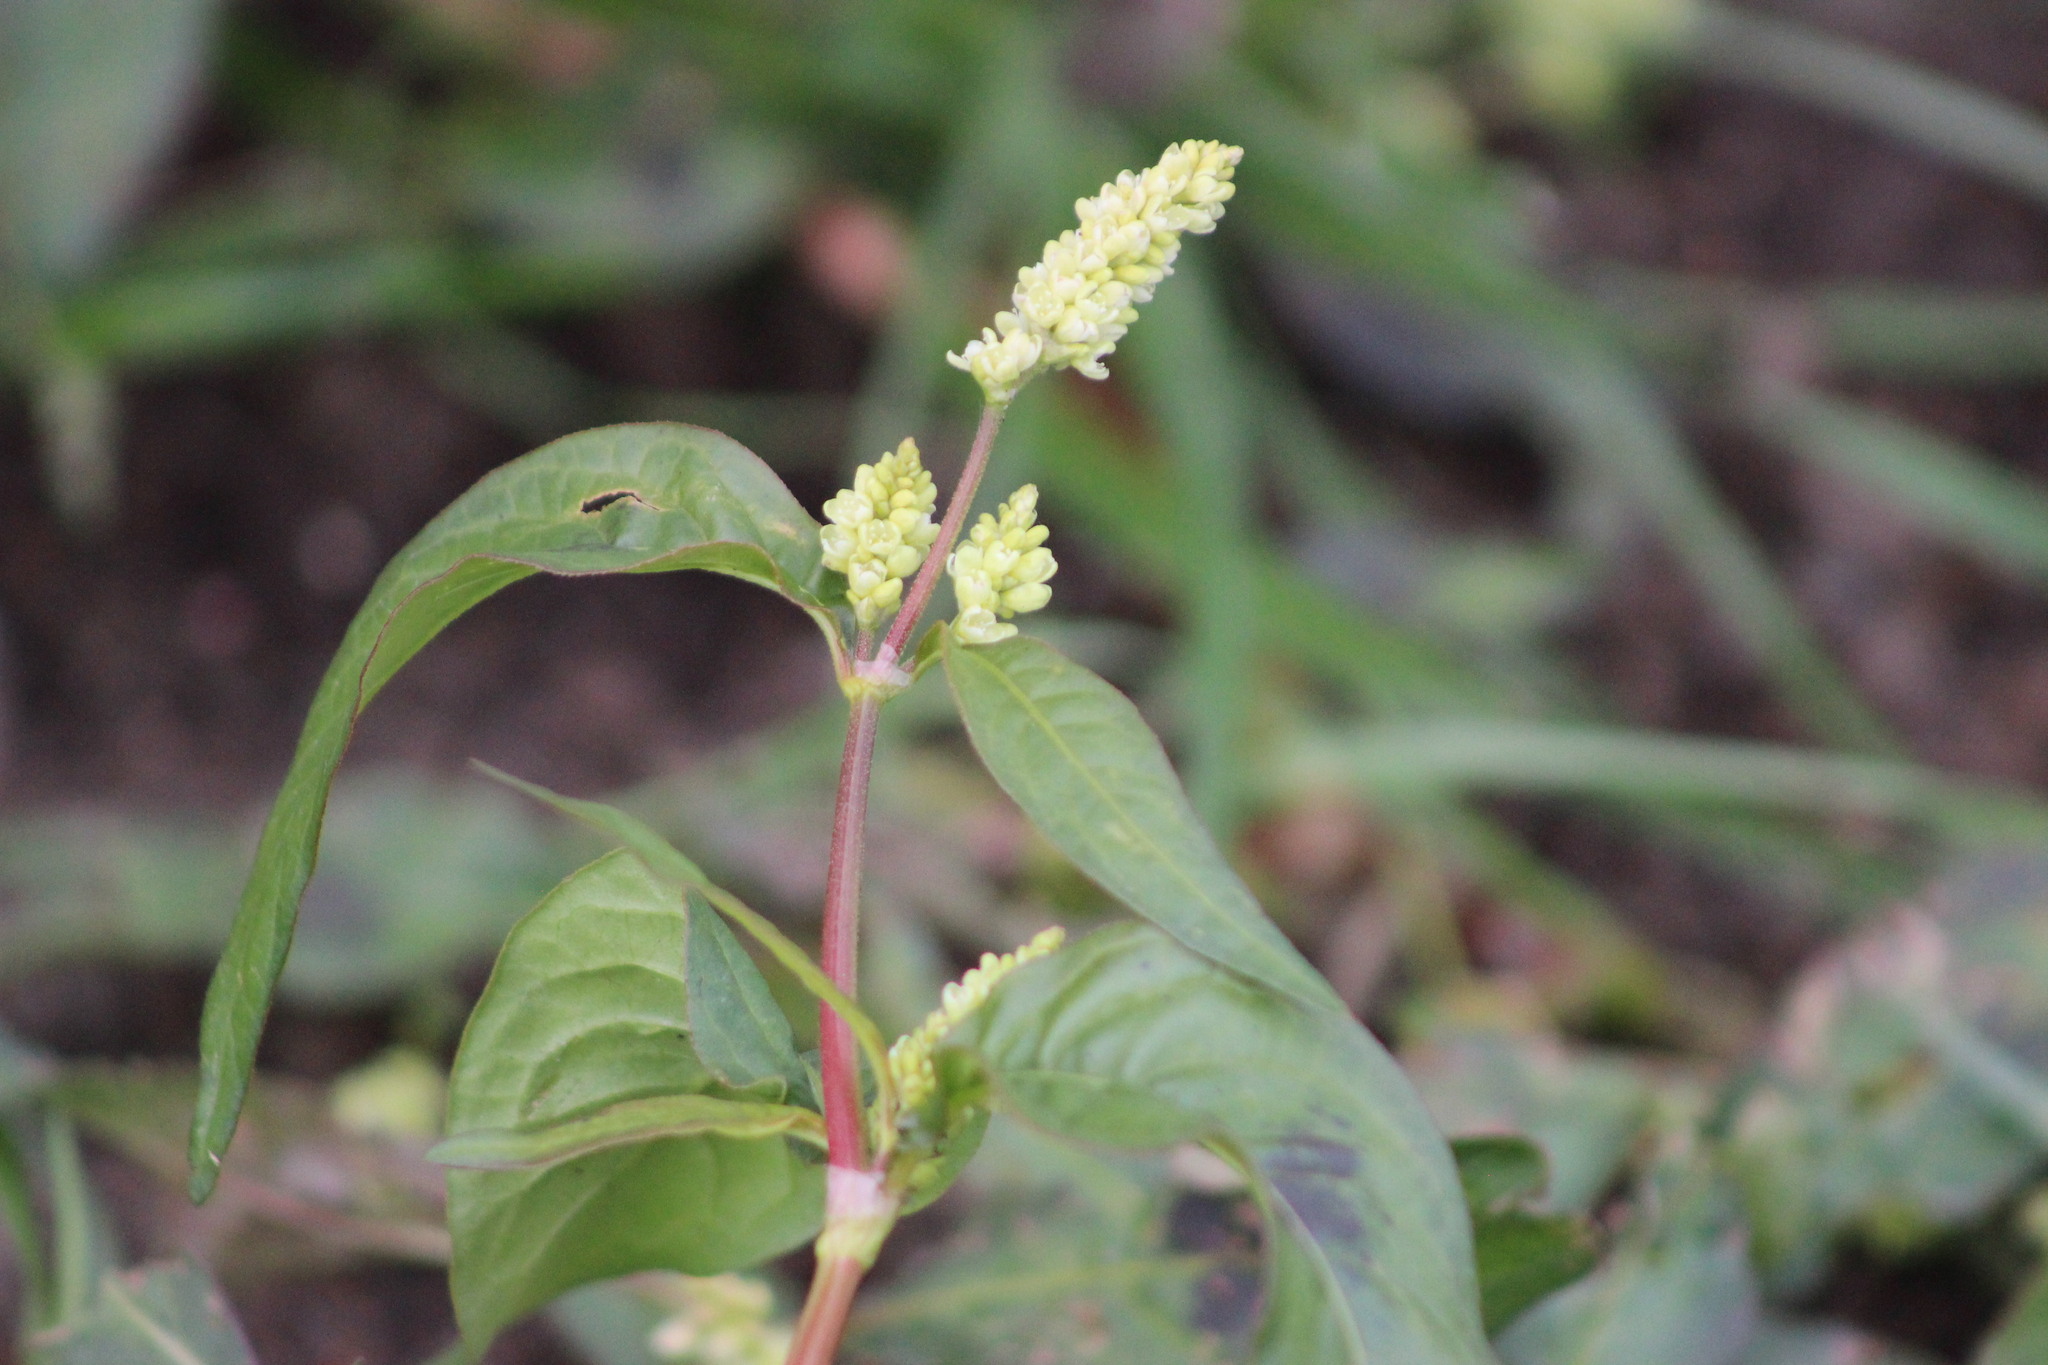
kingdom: Plantae
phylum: Tracheophyta
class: Magnoliopsida
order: Caryophyllales
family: Polygonaceae
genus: Persicaria
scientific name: Persicaria lapathifolia
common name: Curlytop knotweed
